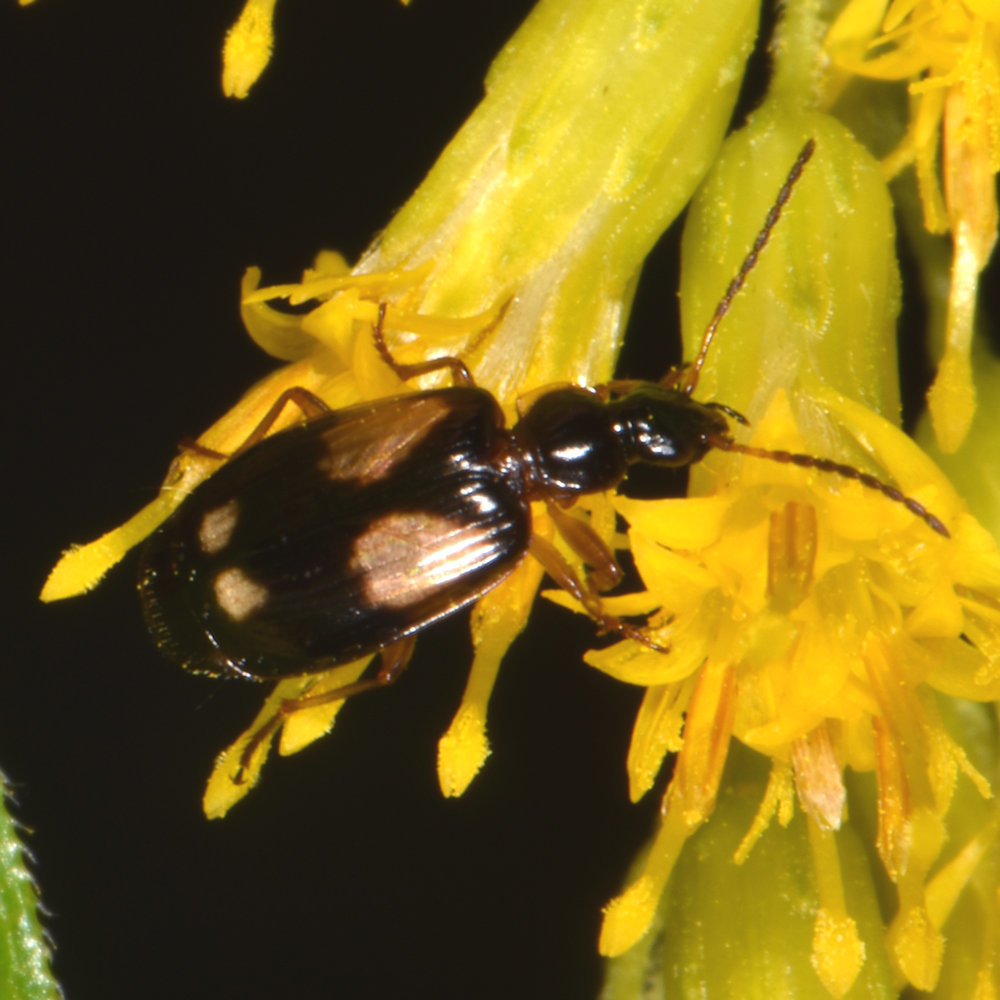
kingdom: Animalia
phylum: Arthropoda
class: Insecta
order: Coleoptera
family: Carabidae
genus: Lebia
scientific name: Lebia ornata
